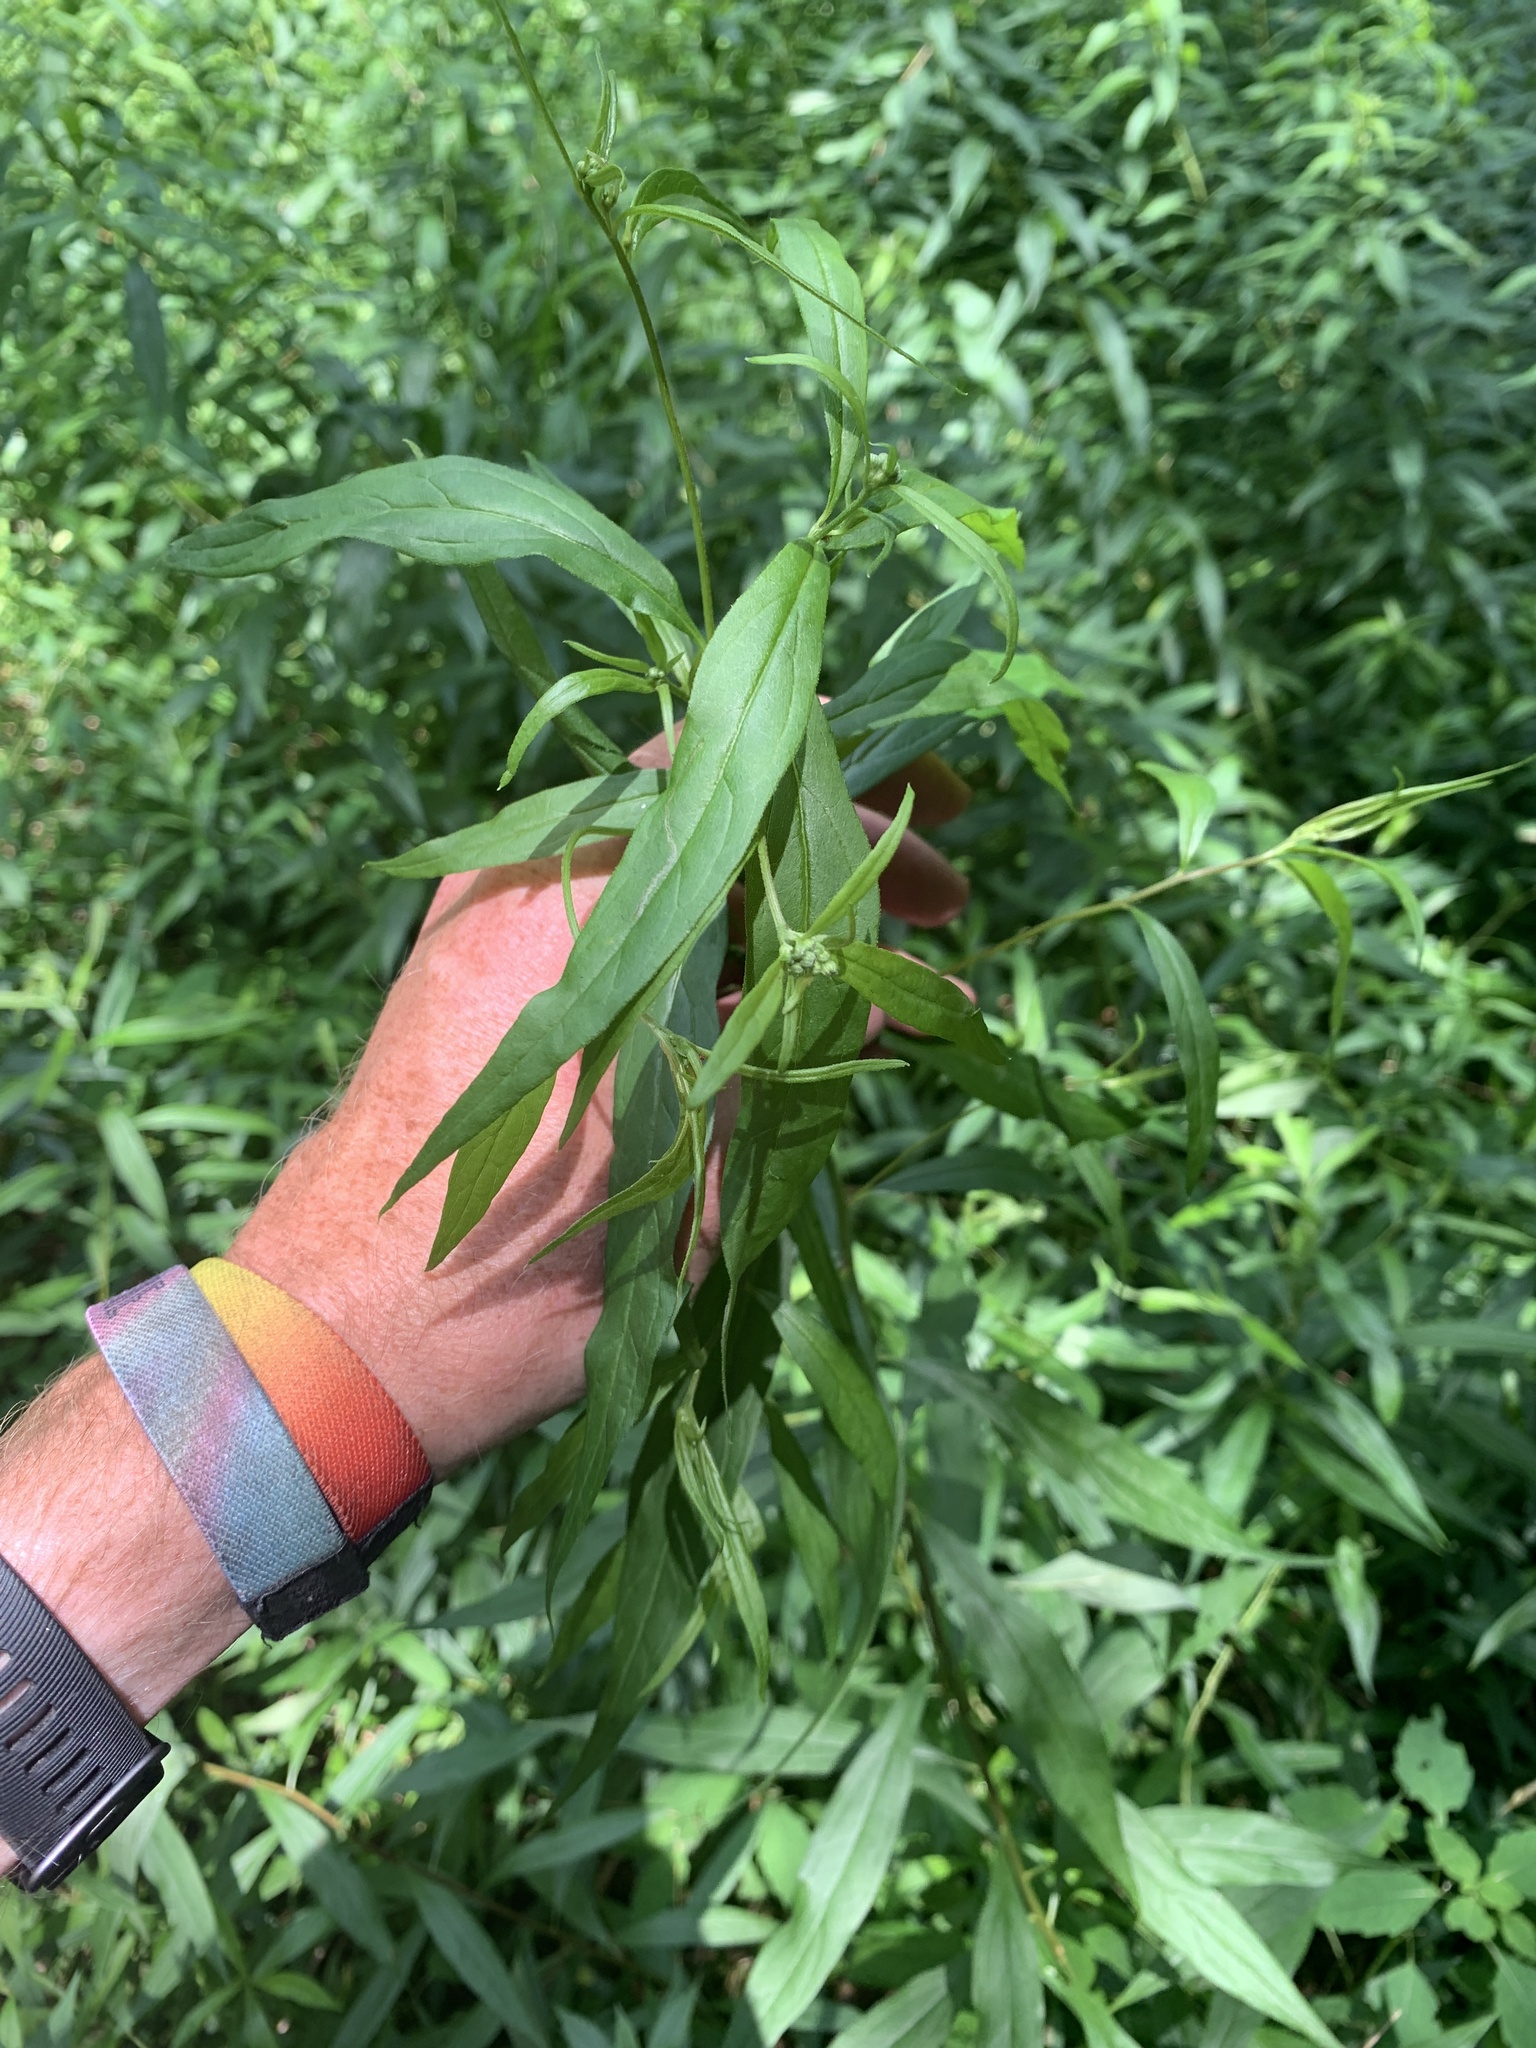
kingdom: Plantae
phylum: Tracheophyta
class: Magnoliopsida
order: Asterales
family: Asteraceae
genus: Doellingeria
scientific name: Doellingeria umbellata
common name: Flat-top white aster
